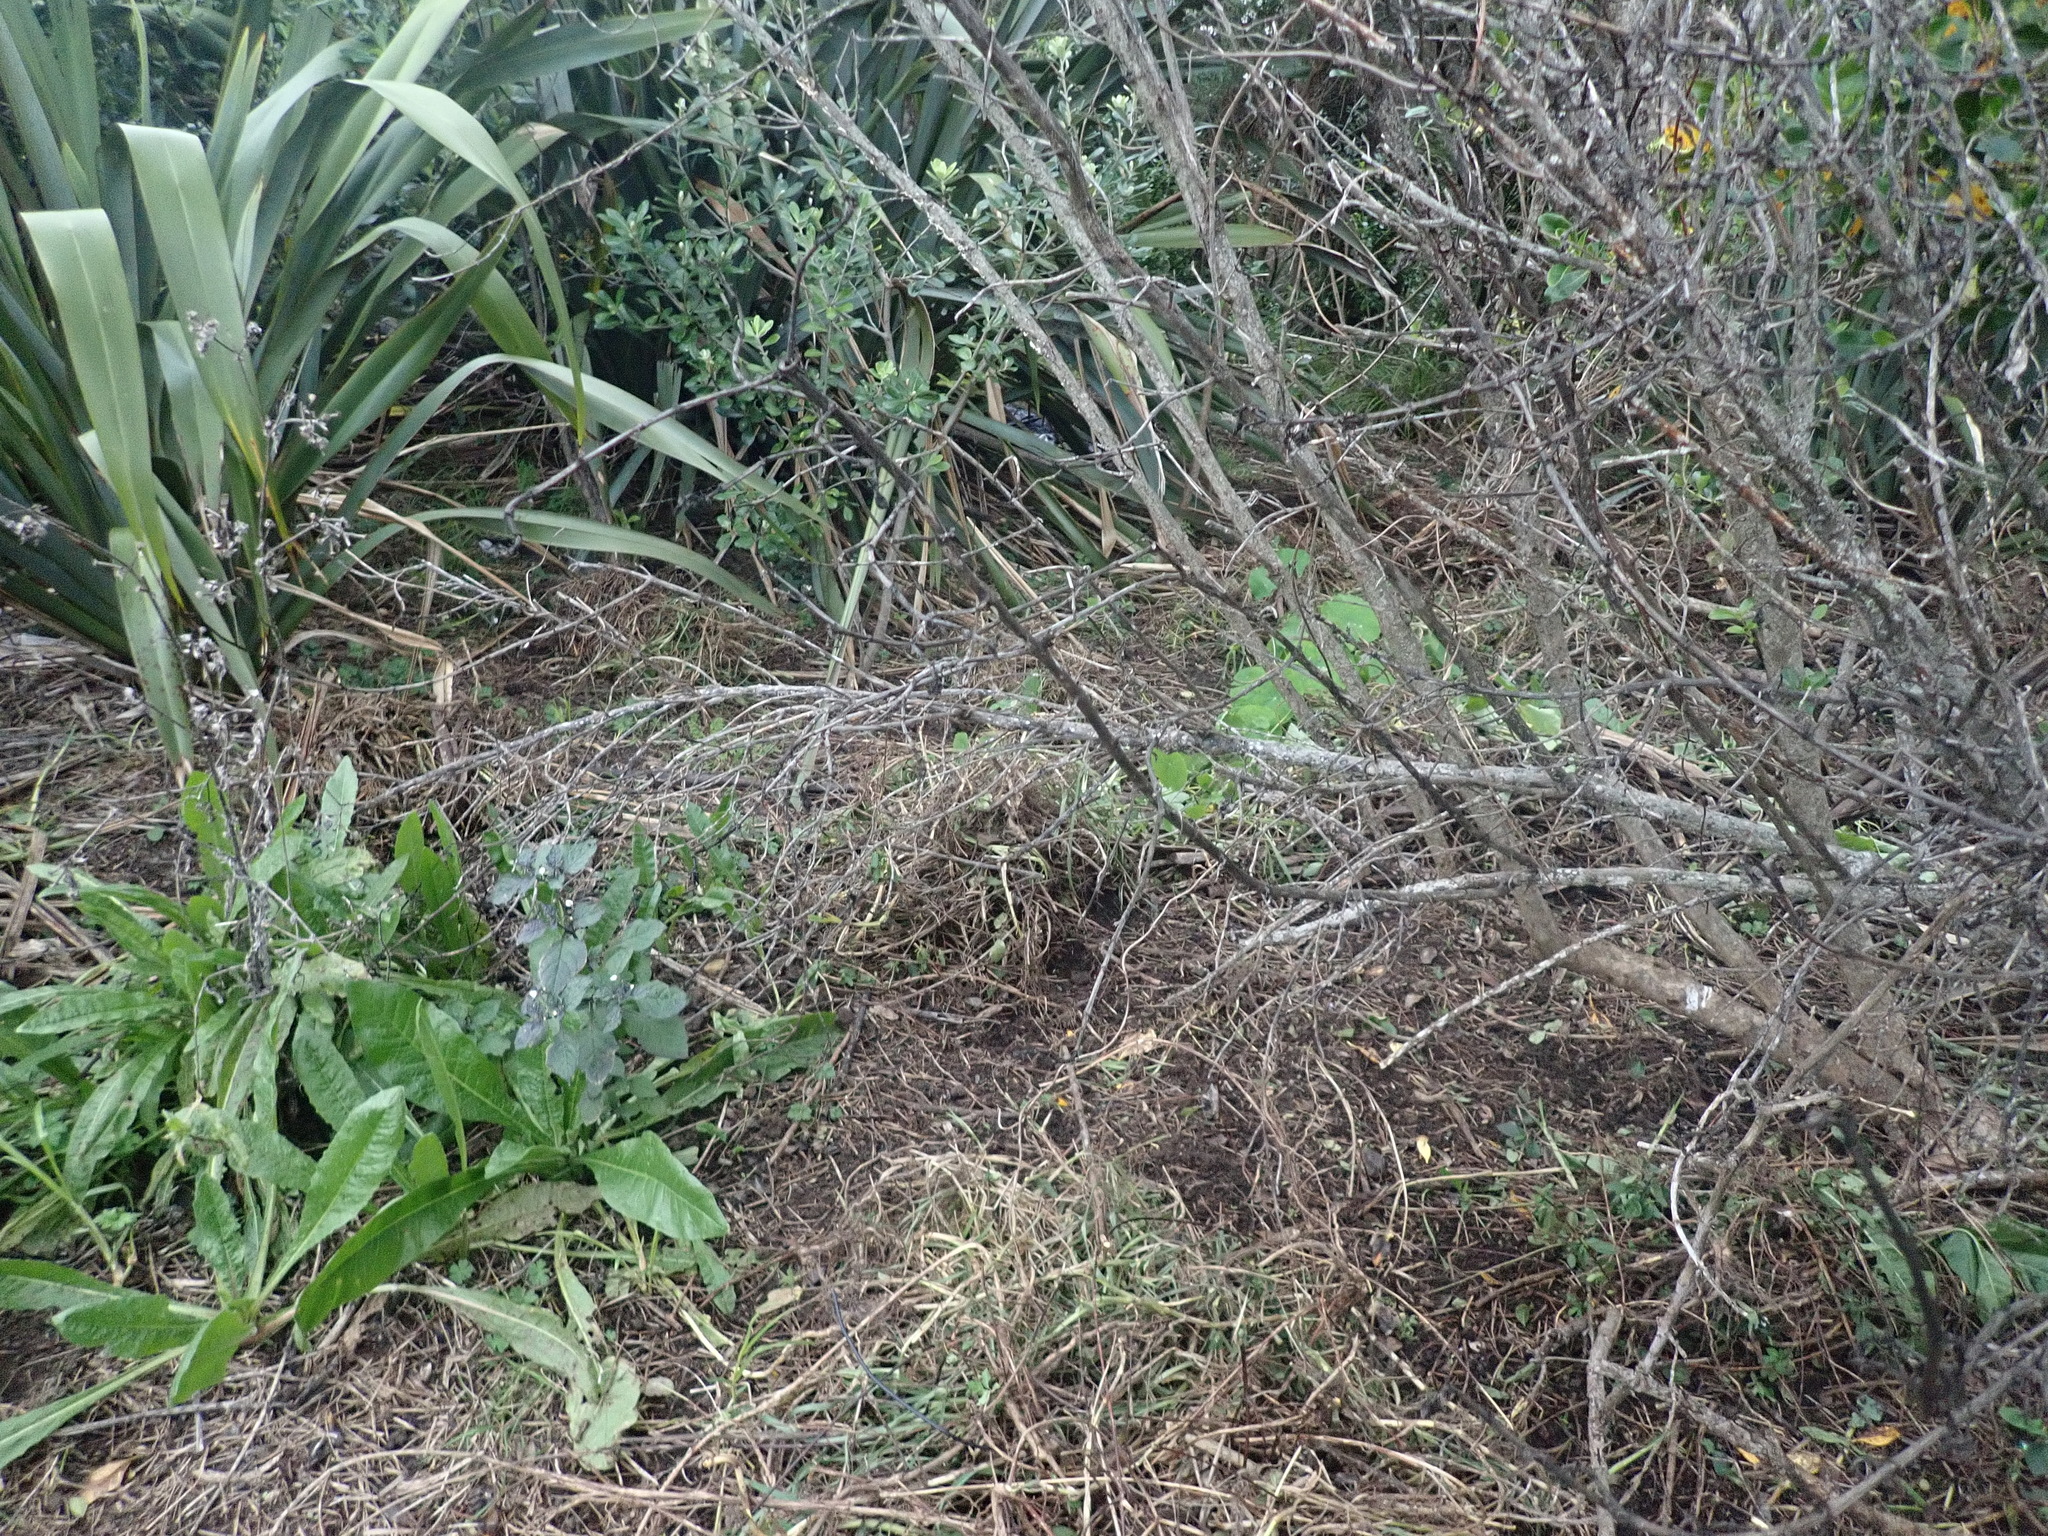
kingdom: Plantae
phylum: Tracheophyta
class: Magnoliopsida
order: Gentianales
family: Rubiaceae
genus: Coprosma
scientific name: Coprosma robusta
